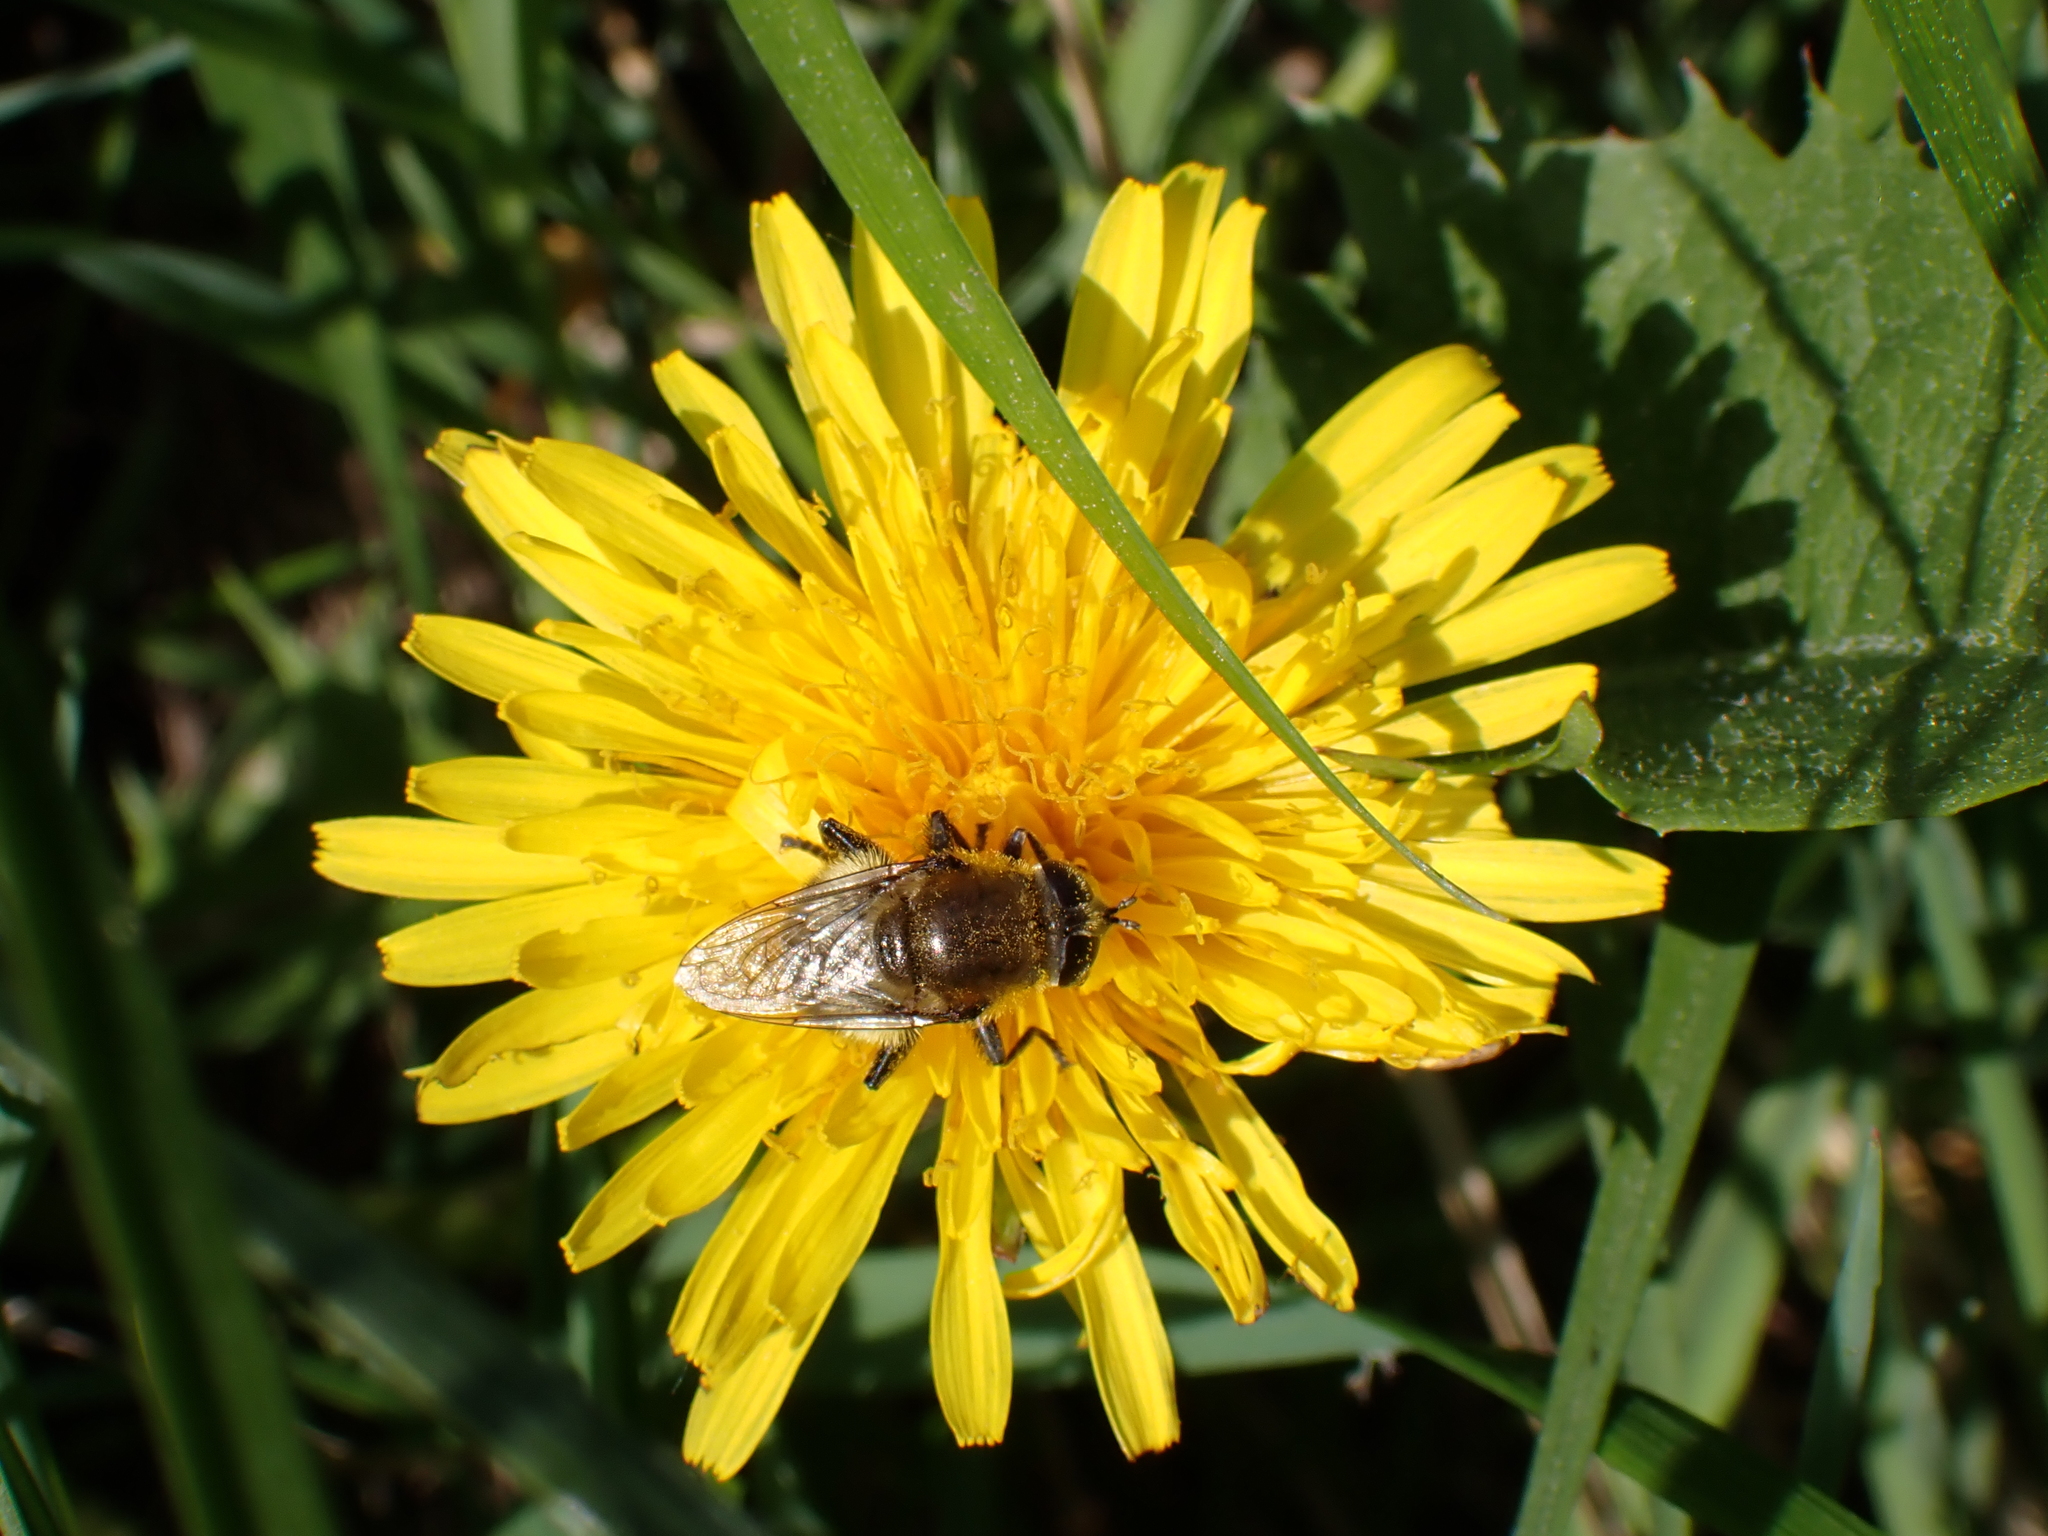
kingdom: Animalia
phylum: Arthropoda
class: Insecta
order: Diptera
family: Syrphidae
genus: Merodon
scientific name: Merodon equestris
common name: Greater bulb-fly
